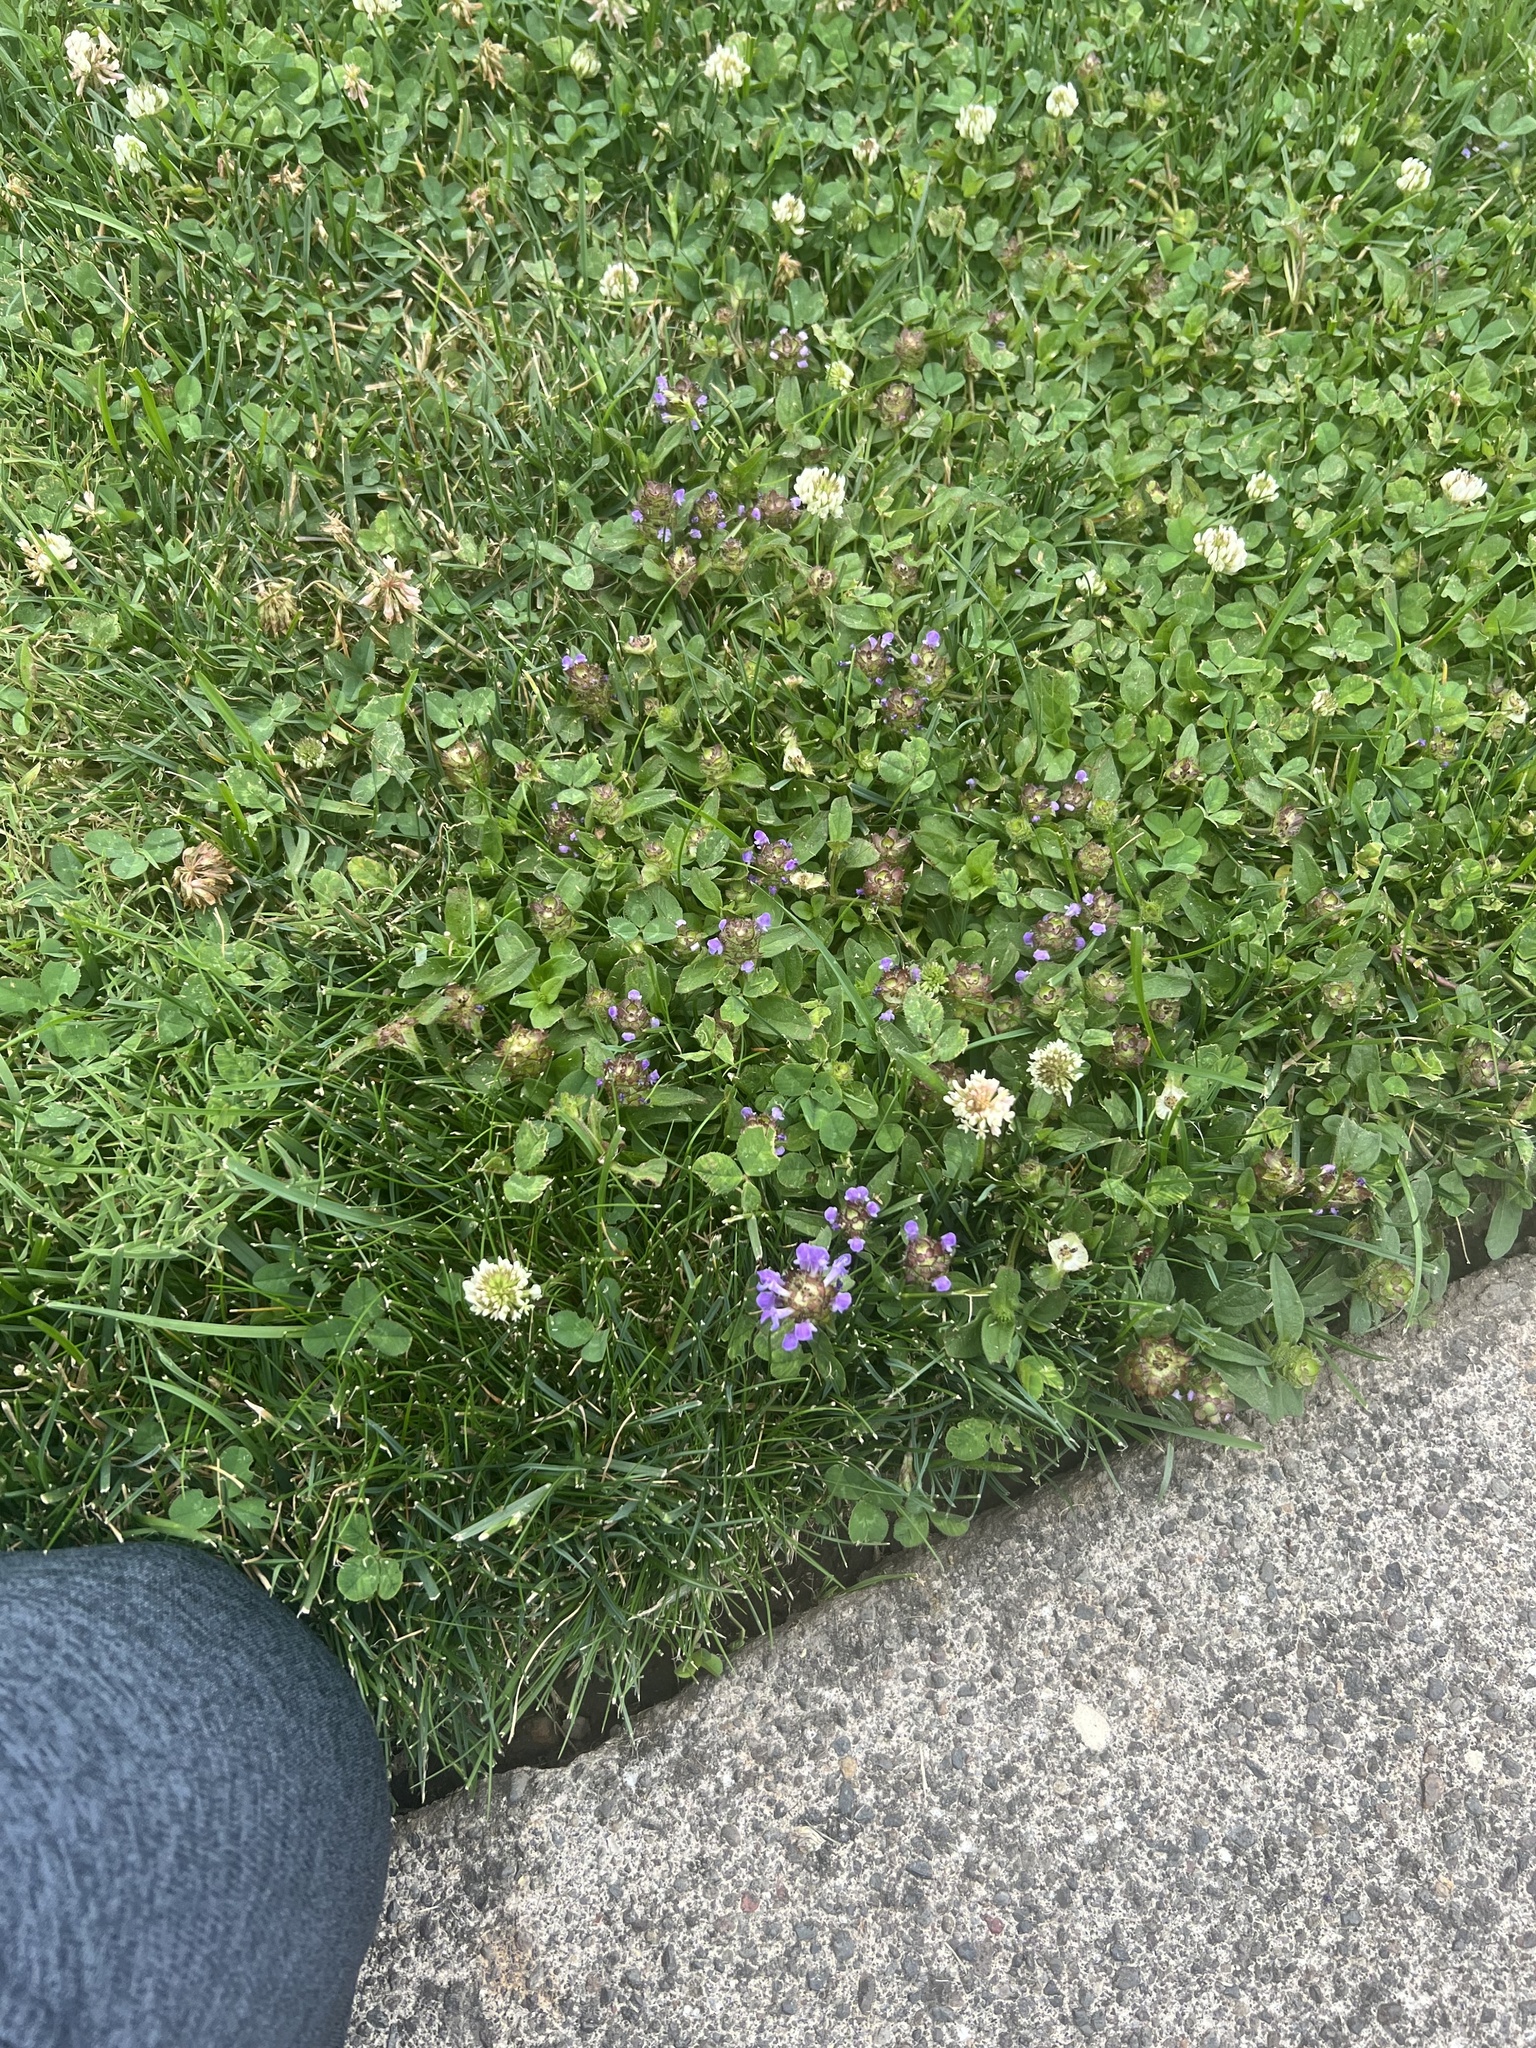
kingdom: Plantae
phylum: Tracheophyta
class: Magnoliopsida
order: Lamiales
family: Lamiaceae
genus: Prunella
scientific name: Prunella vulgaris
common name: Heal-all
